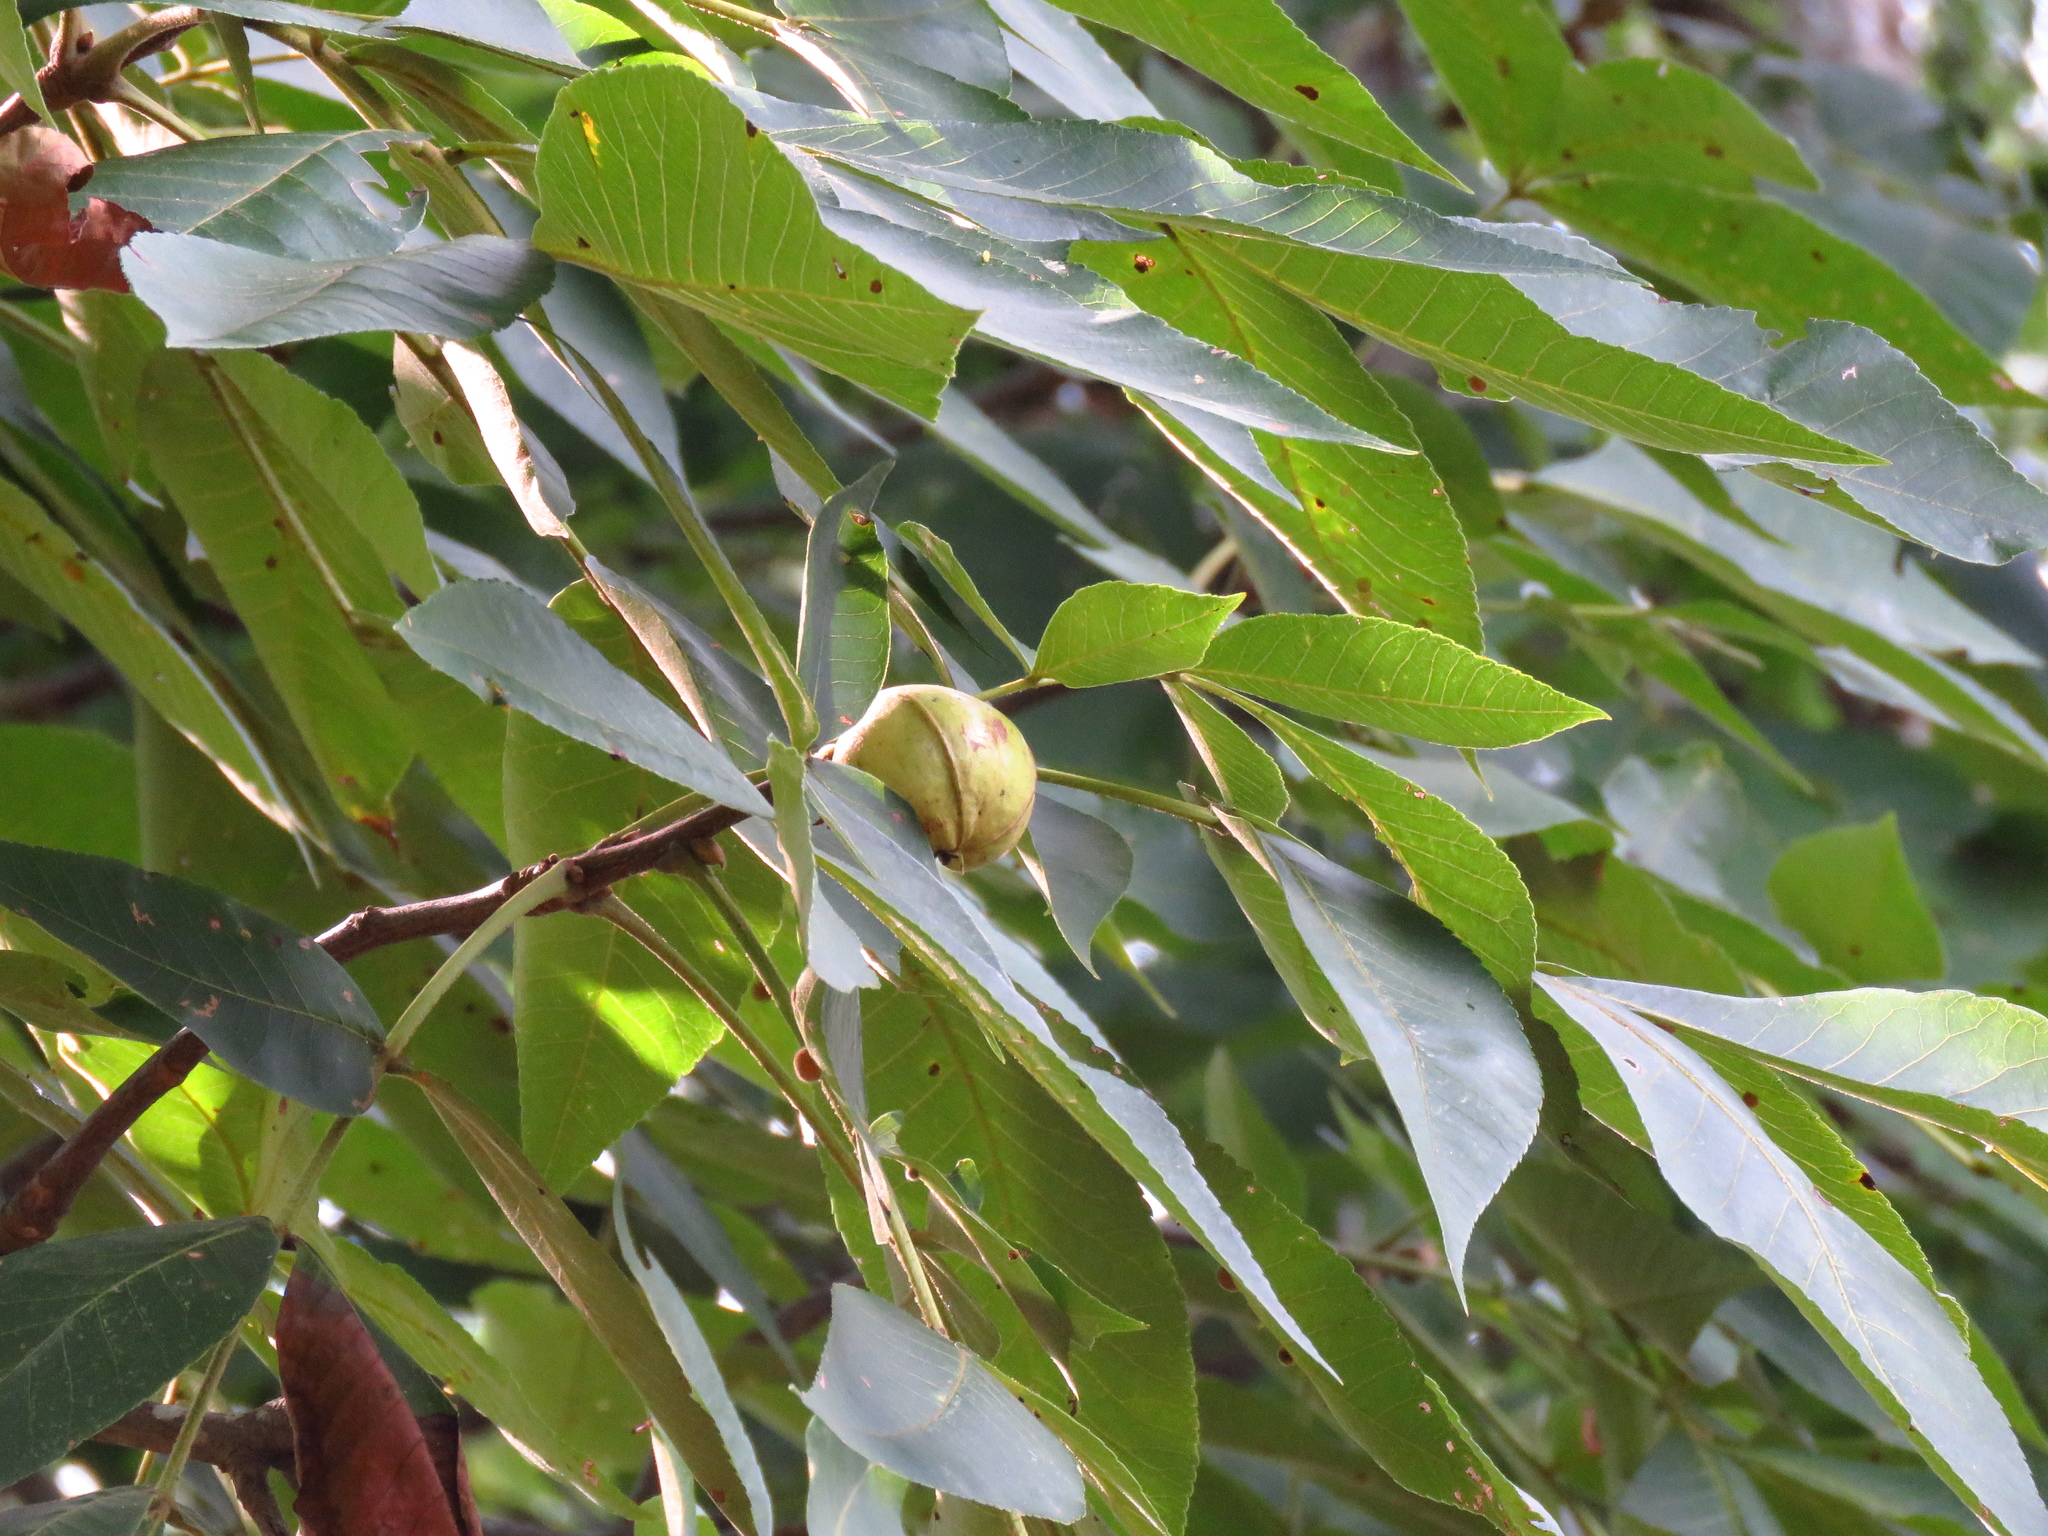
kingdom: Plantae
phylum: Tracheophyta
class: Magnoliopsida
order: Fagales
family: Juglandaceae
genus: Carya
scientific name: Carya alba
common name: Mockernut hickory
